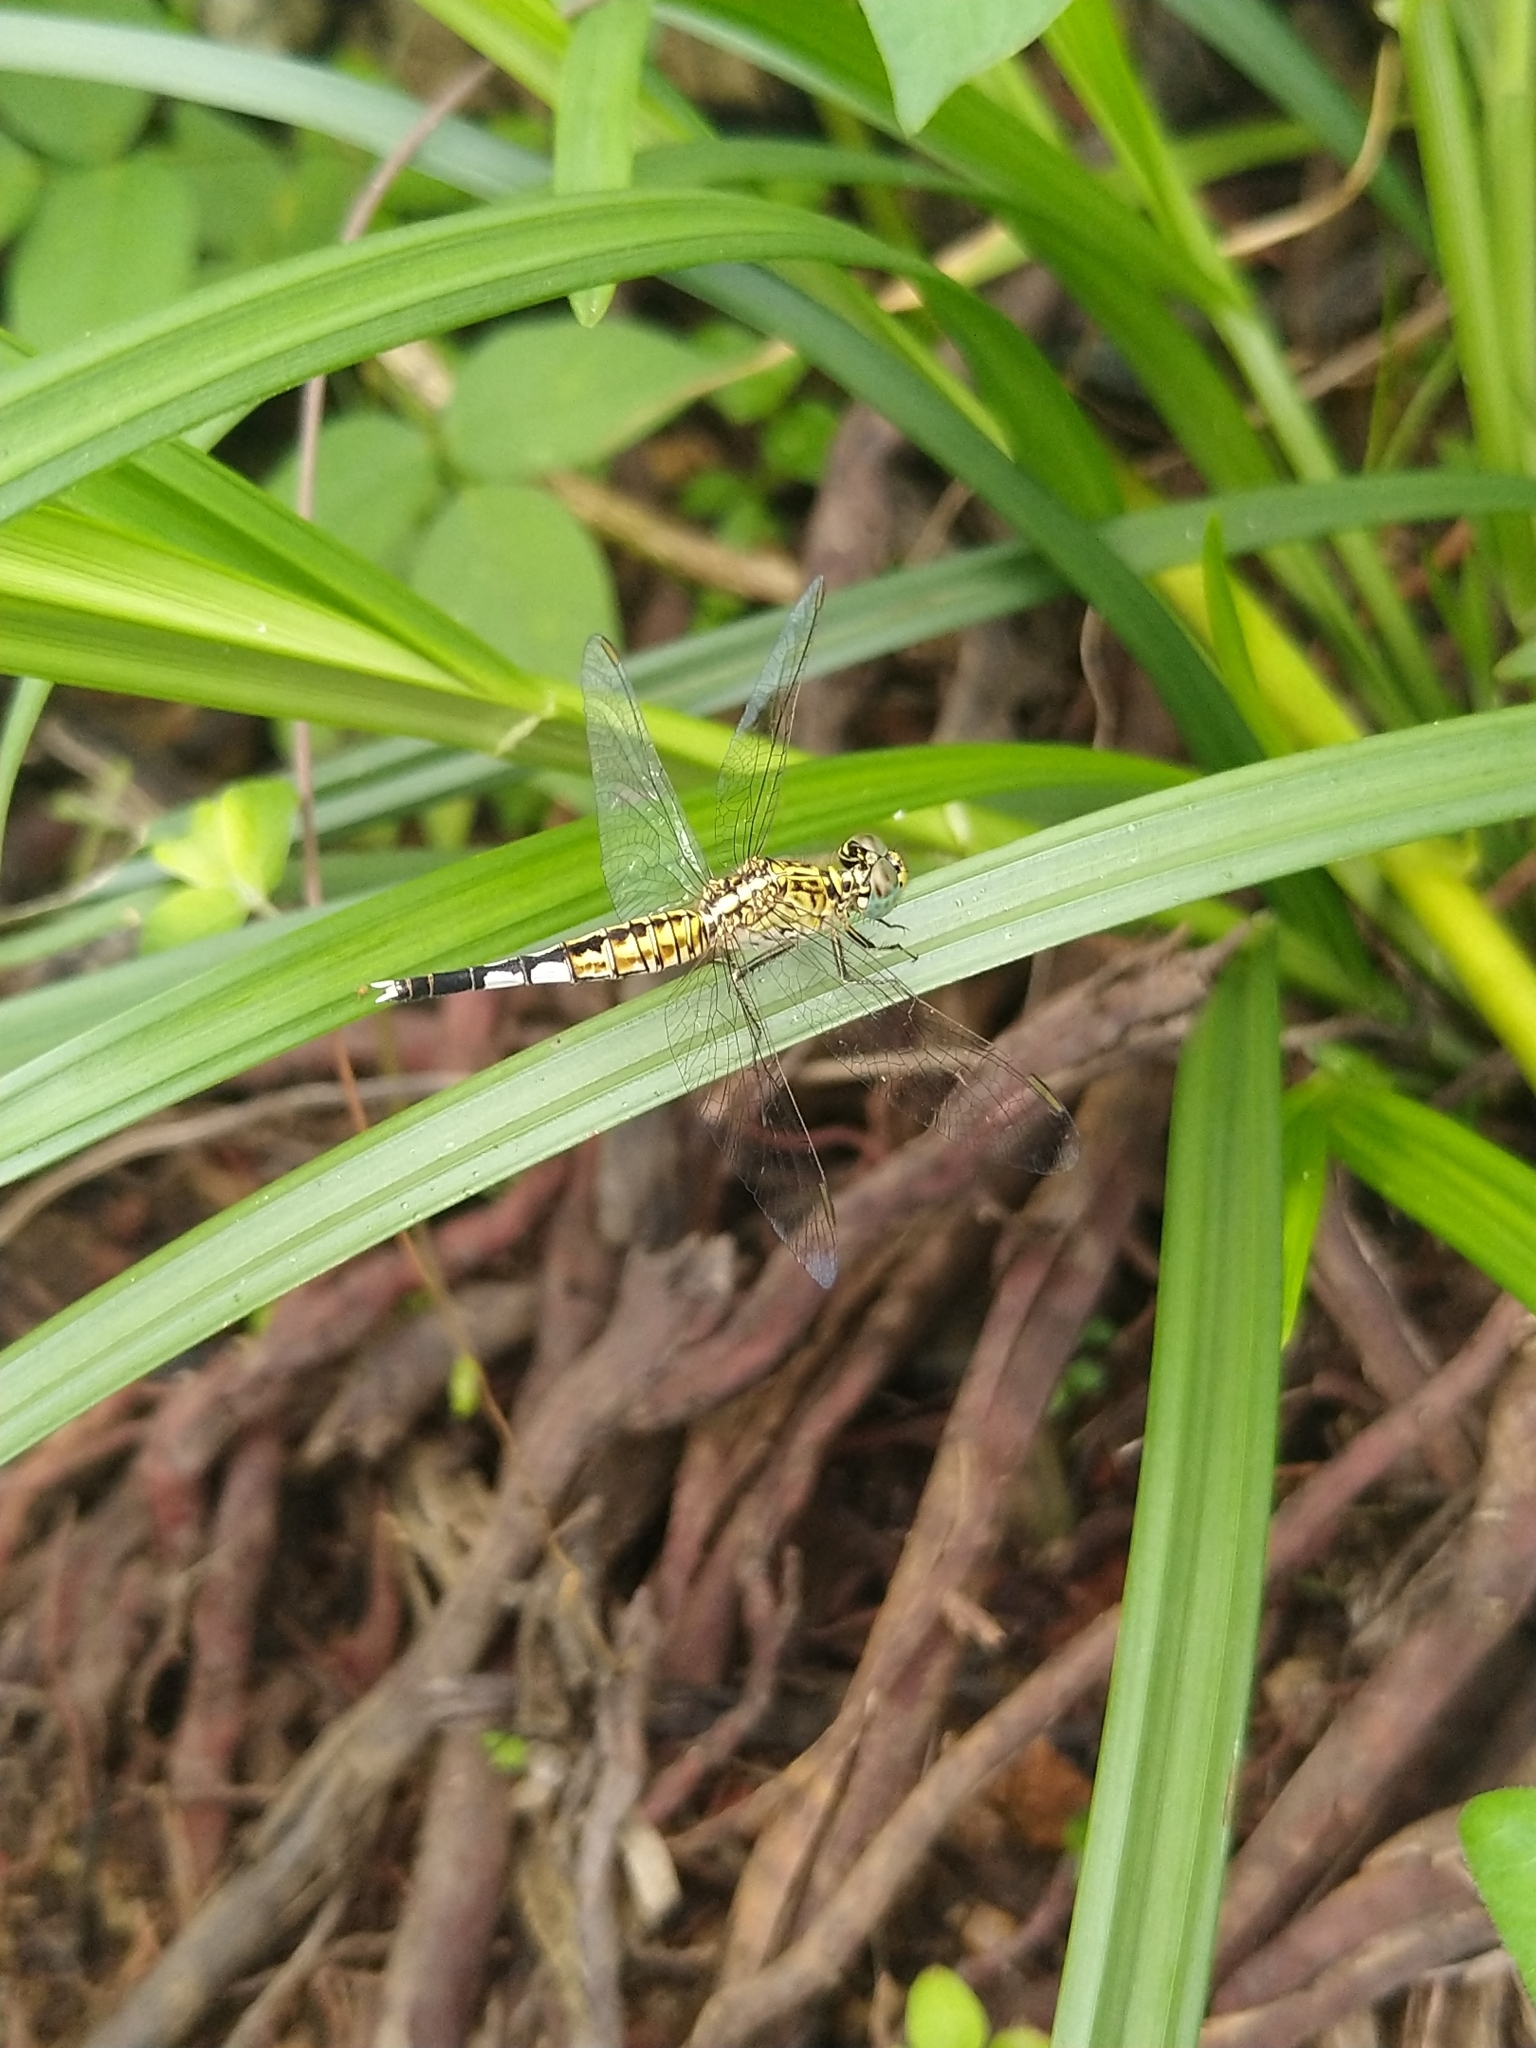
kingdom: Animalia
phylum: Arthropoda
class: Insecta
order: Odonata
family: Libellulidae
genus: Acisoma
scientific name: Acisoma panorpoides
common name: Asian pintail
